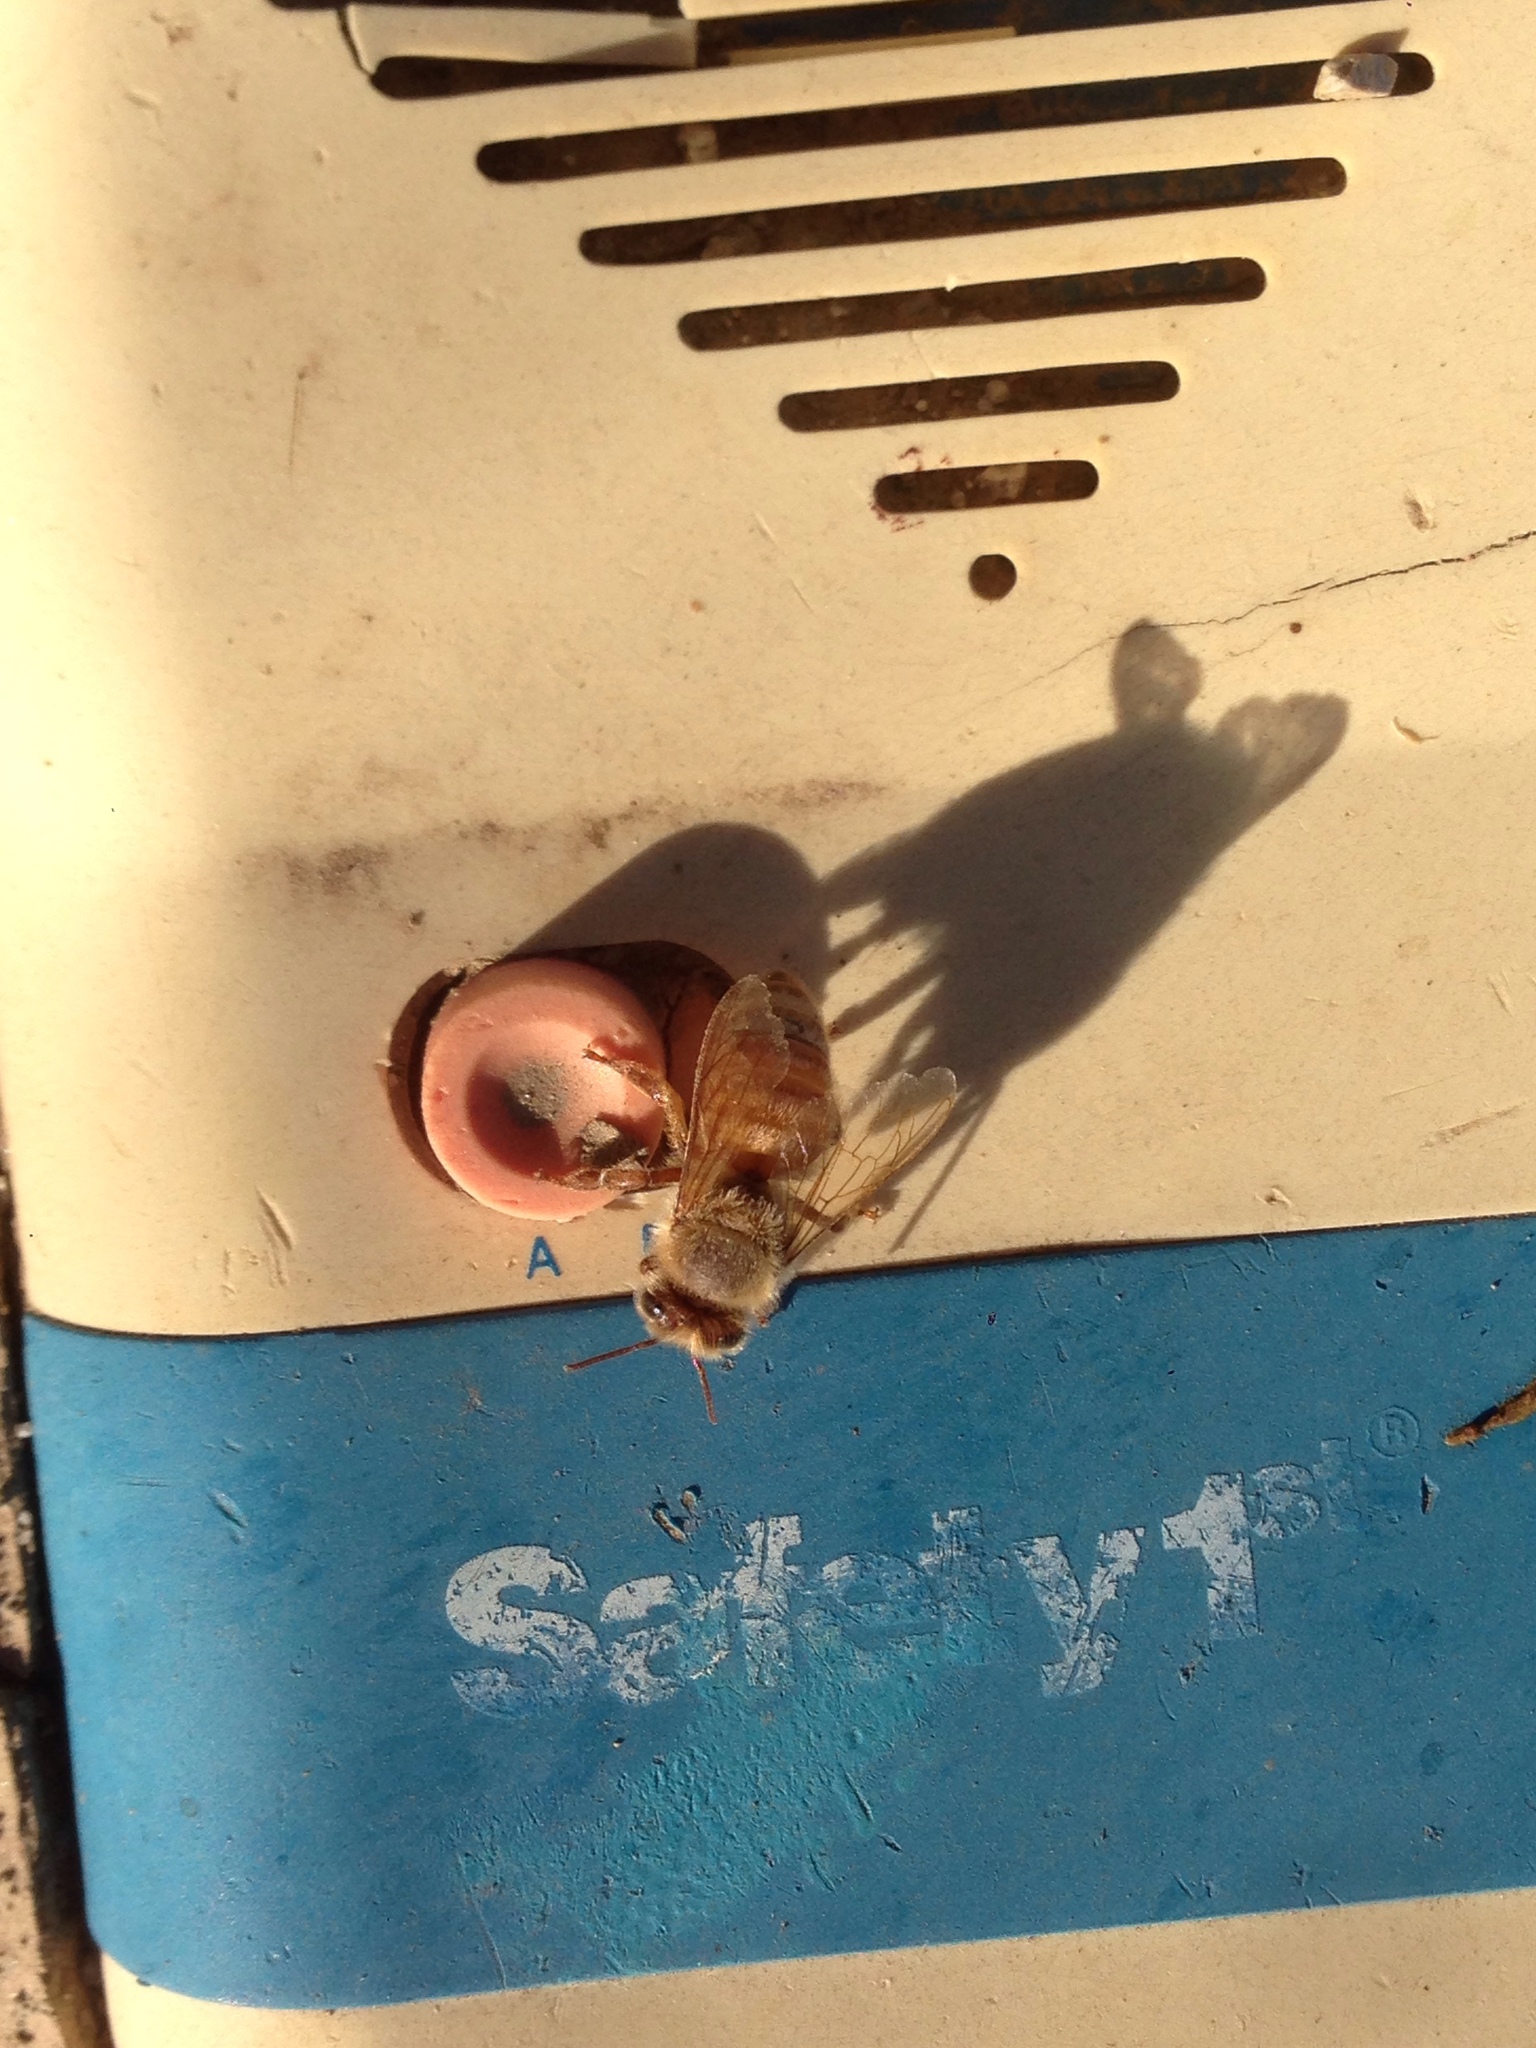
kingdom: Animalia
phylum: Arthropoda
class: Insecta
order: Hymenoptera
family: Apidae
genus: Apis
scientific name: Apis mellifera
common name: Honey bee
